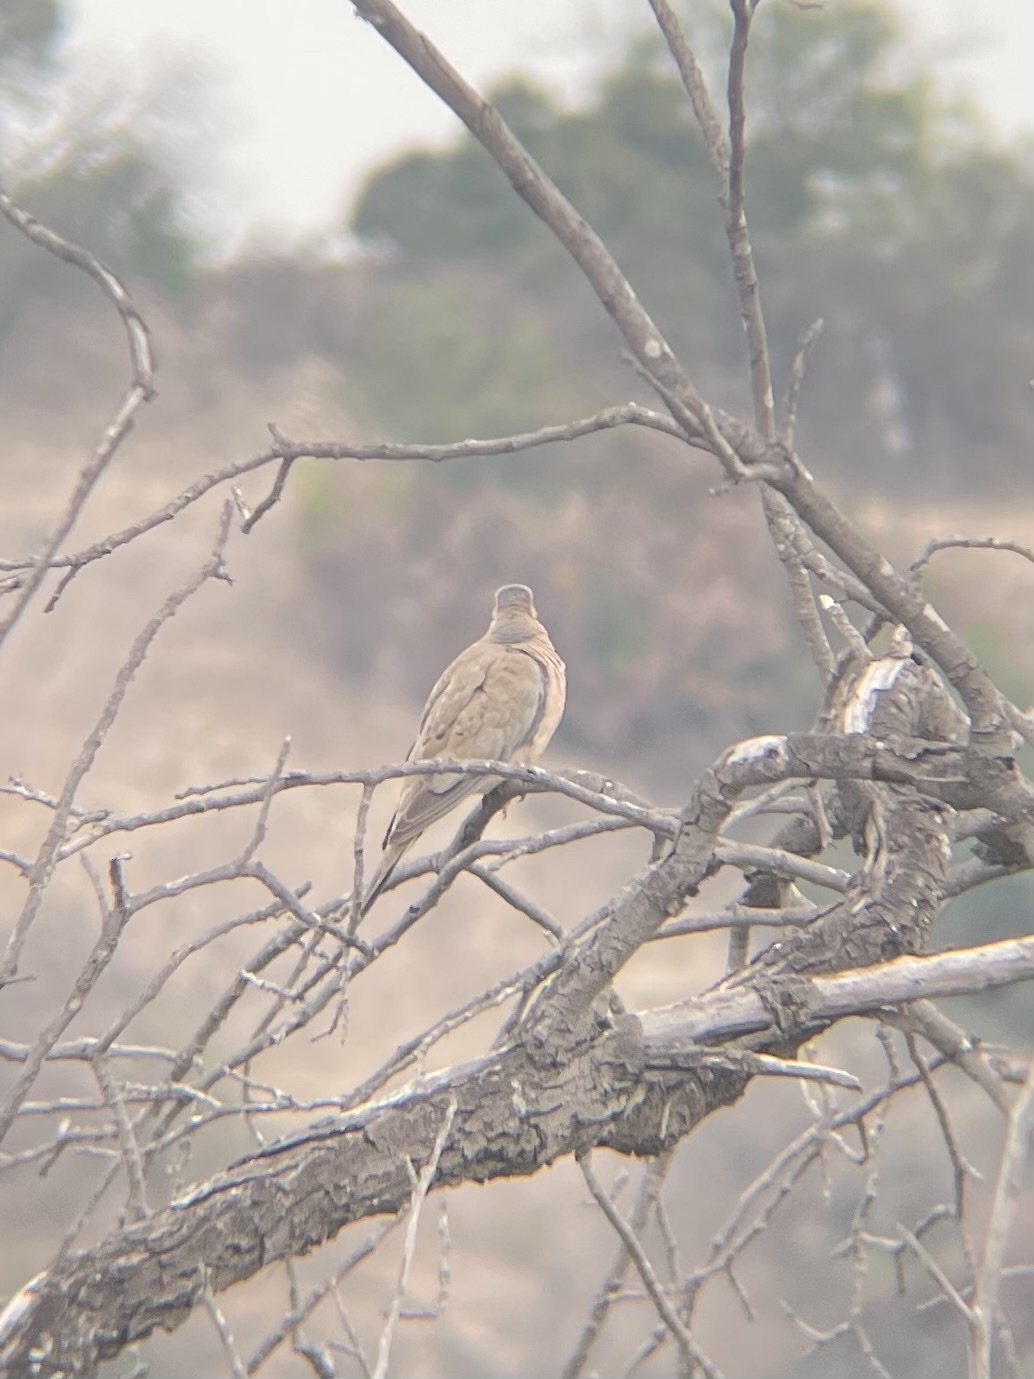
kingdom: Animalia
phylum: Chordata
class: Aves
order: Columbiformes
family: Columbidae
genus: Zenaida
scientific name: Zenaida macroura
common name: Mourning dove
